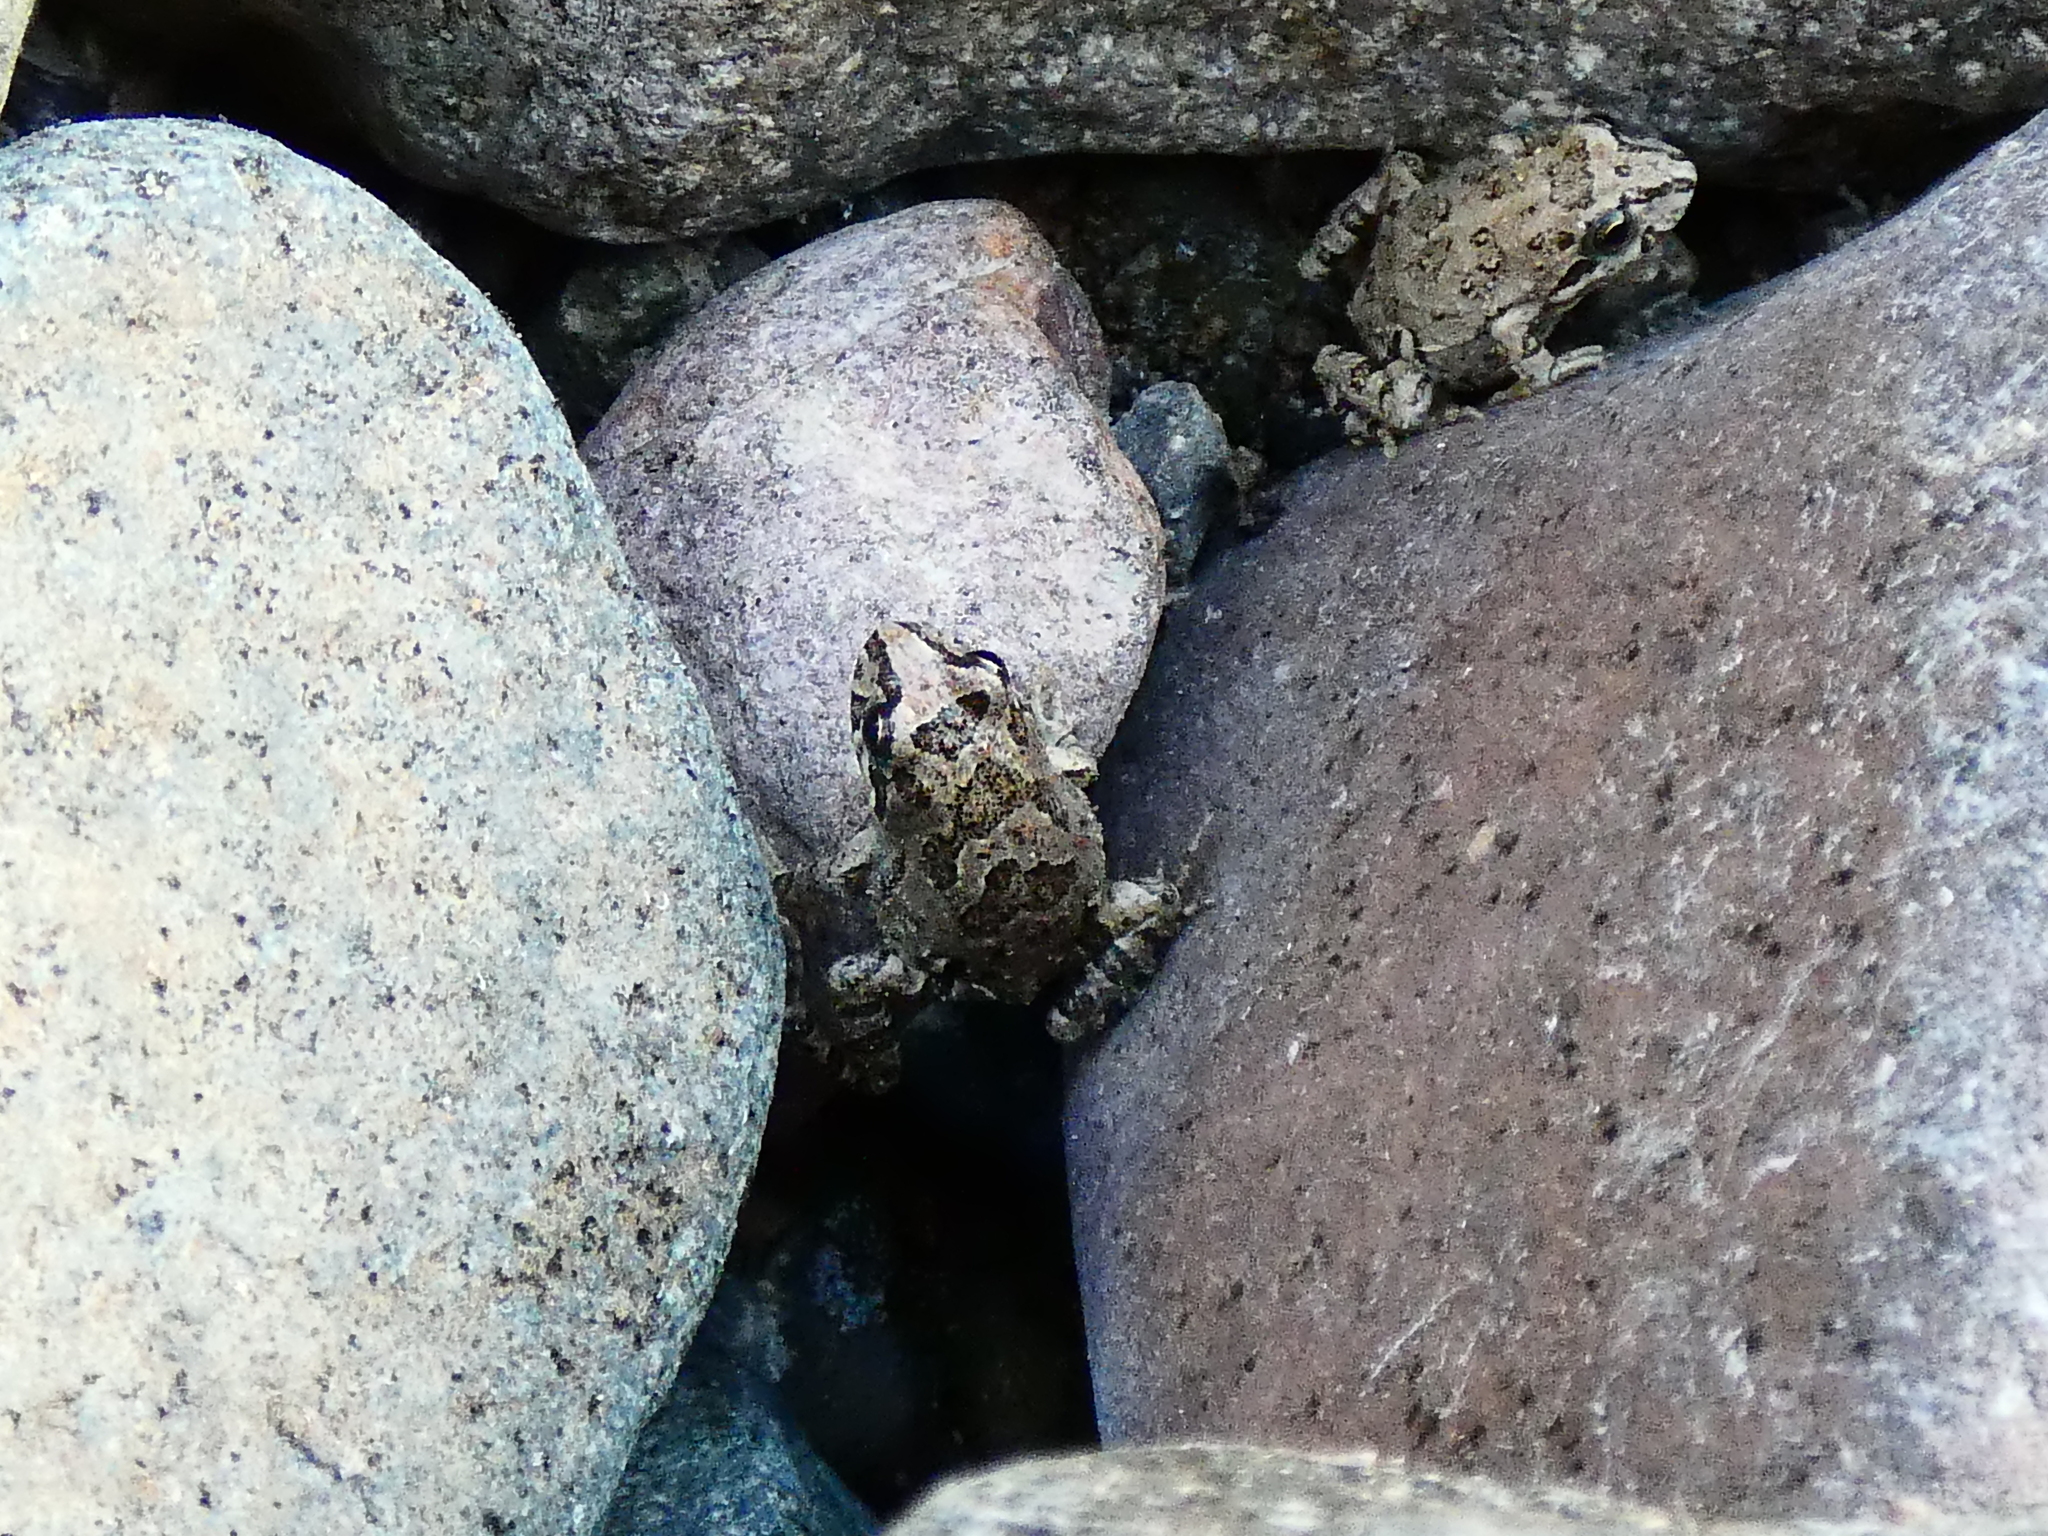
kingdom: Animalia
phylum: Chordata
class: Amphibia
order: Anura
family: Leptodactylidae
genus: Pleurodema
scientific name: Pleurodema thaul
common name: Chile four-eyed frog
